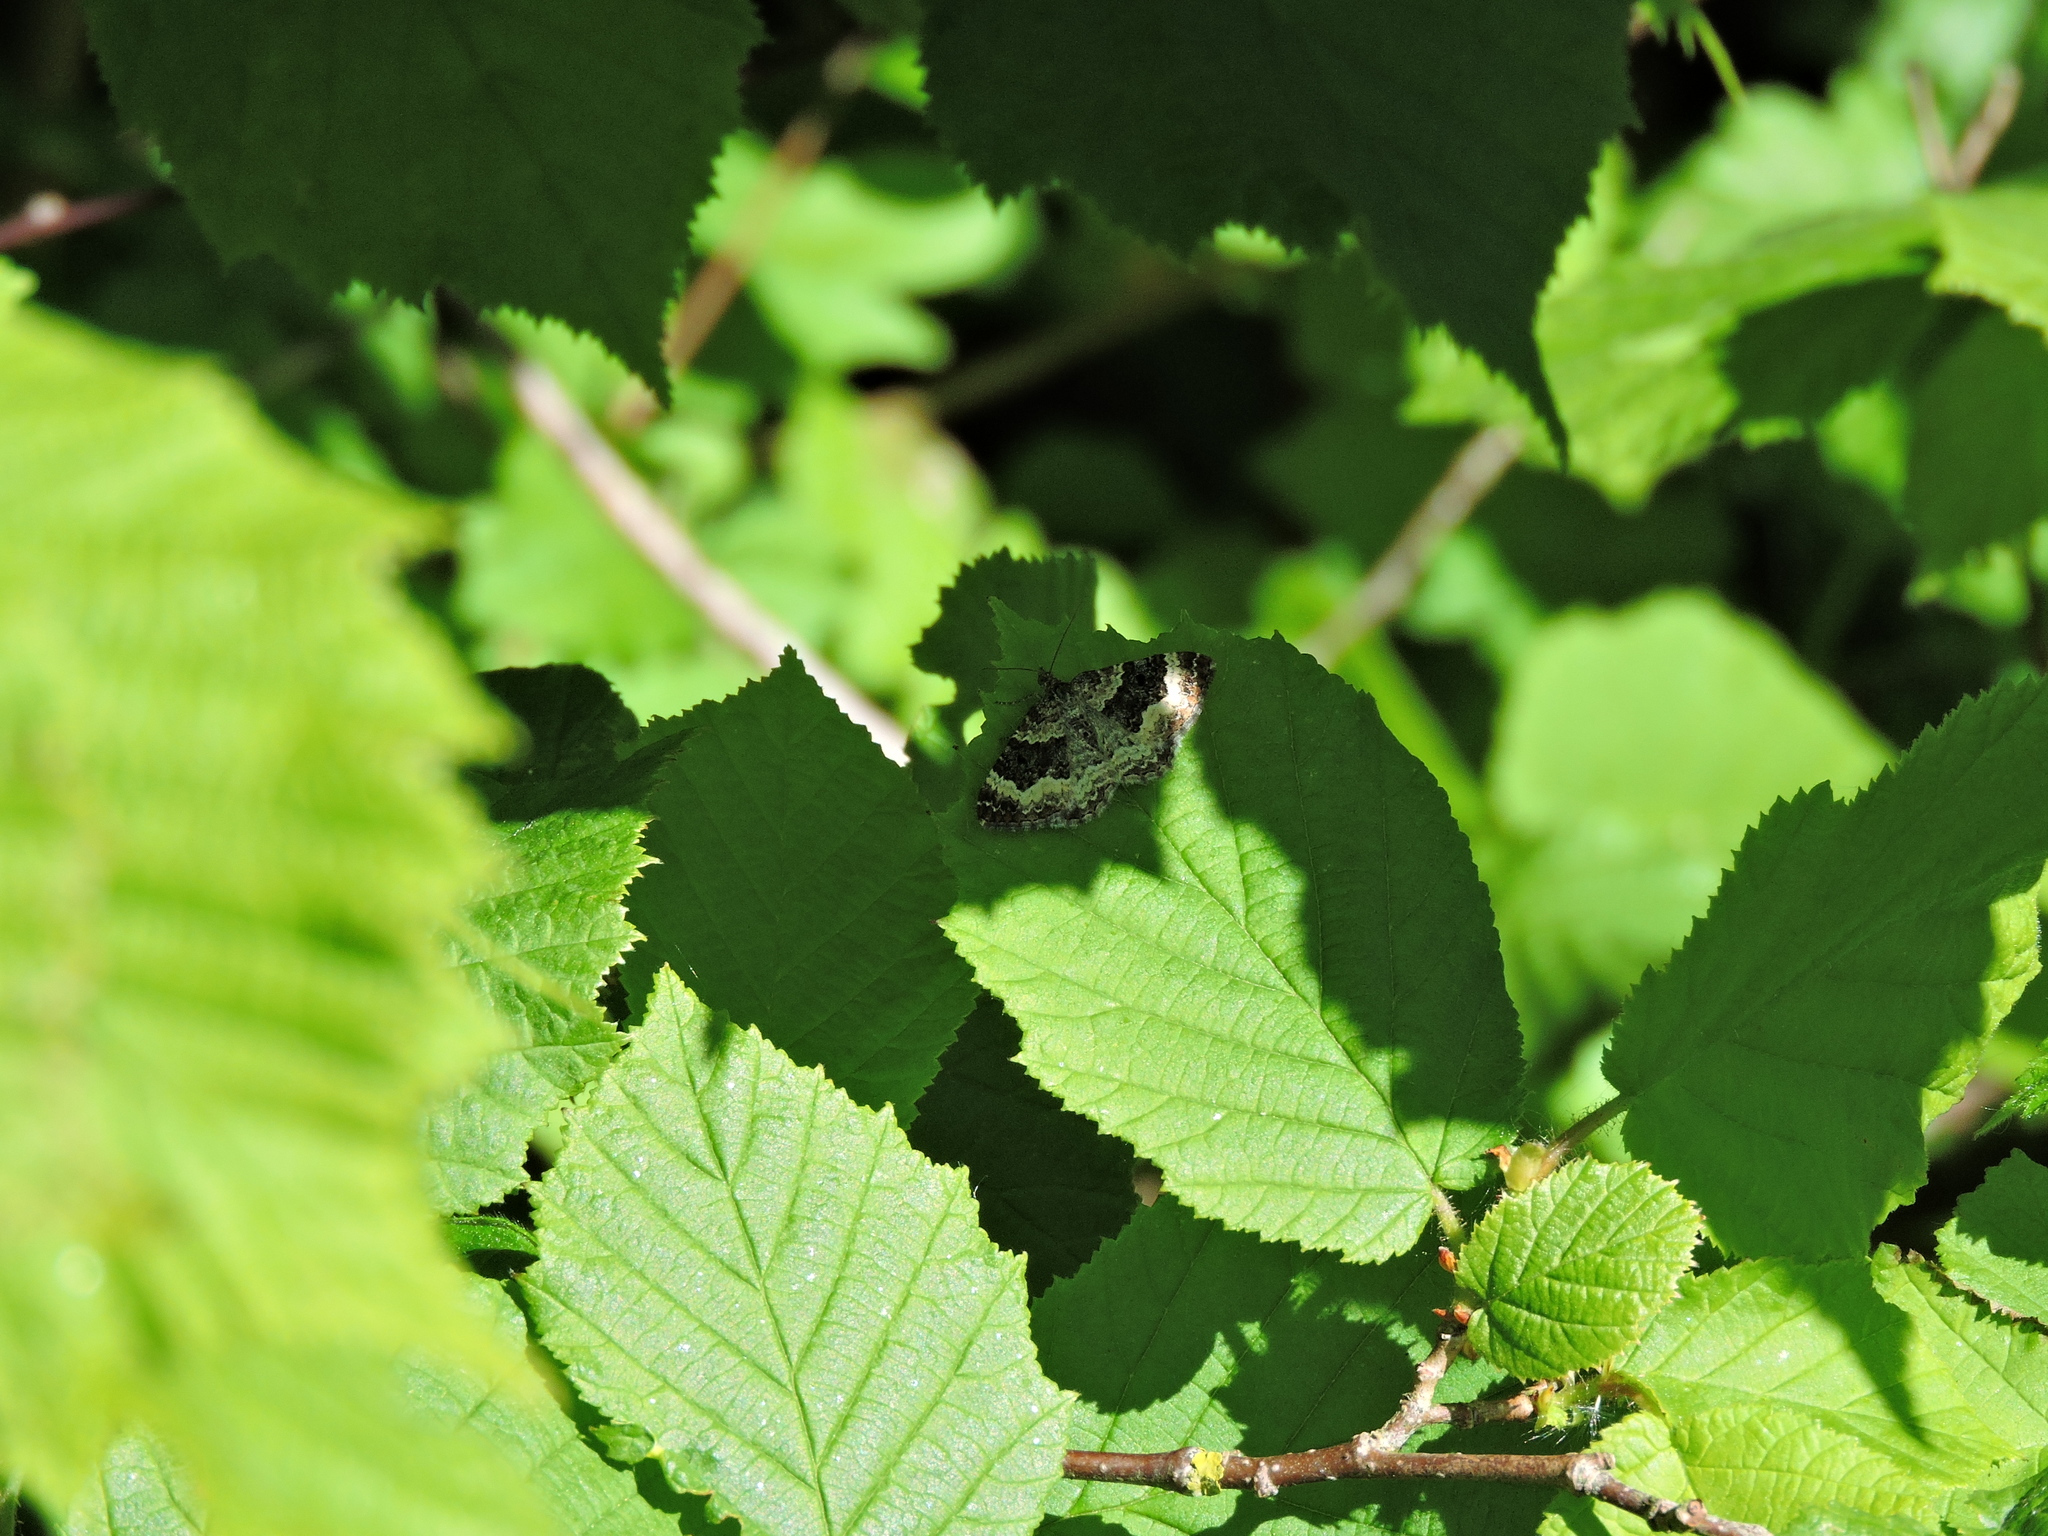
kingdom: Animalia
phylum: Arthropoda
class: Insecta
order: Lepidoptera
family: Geometridae
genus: Epirrhoe
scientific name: Epirrhoe alternata
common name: Common carpet
